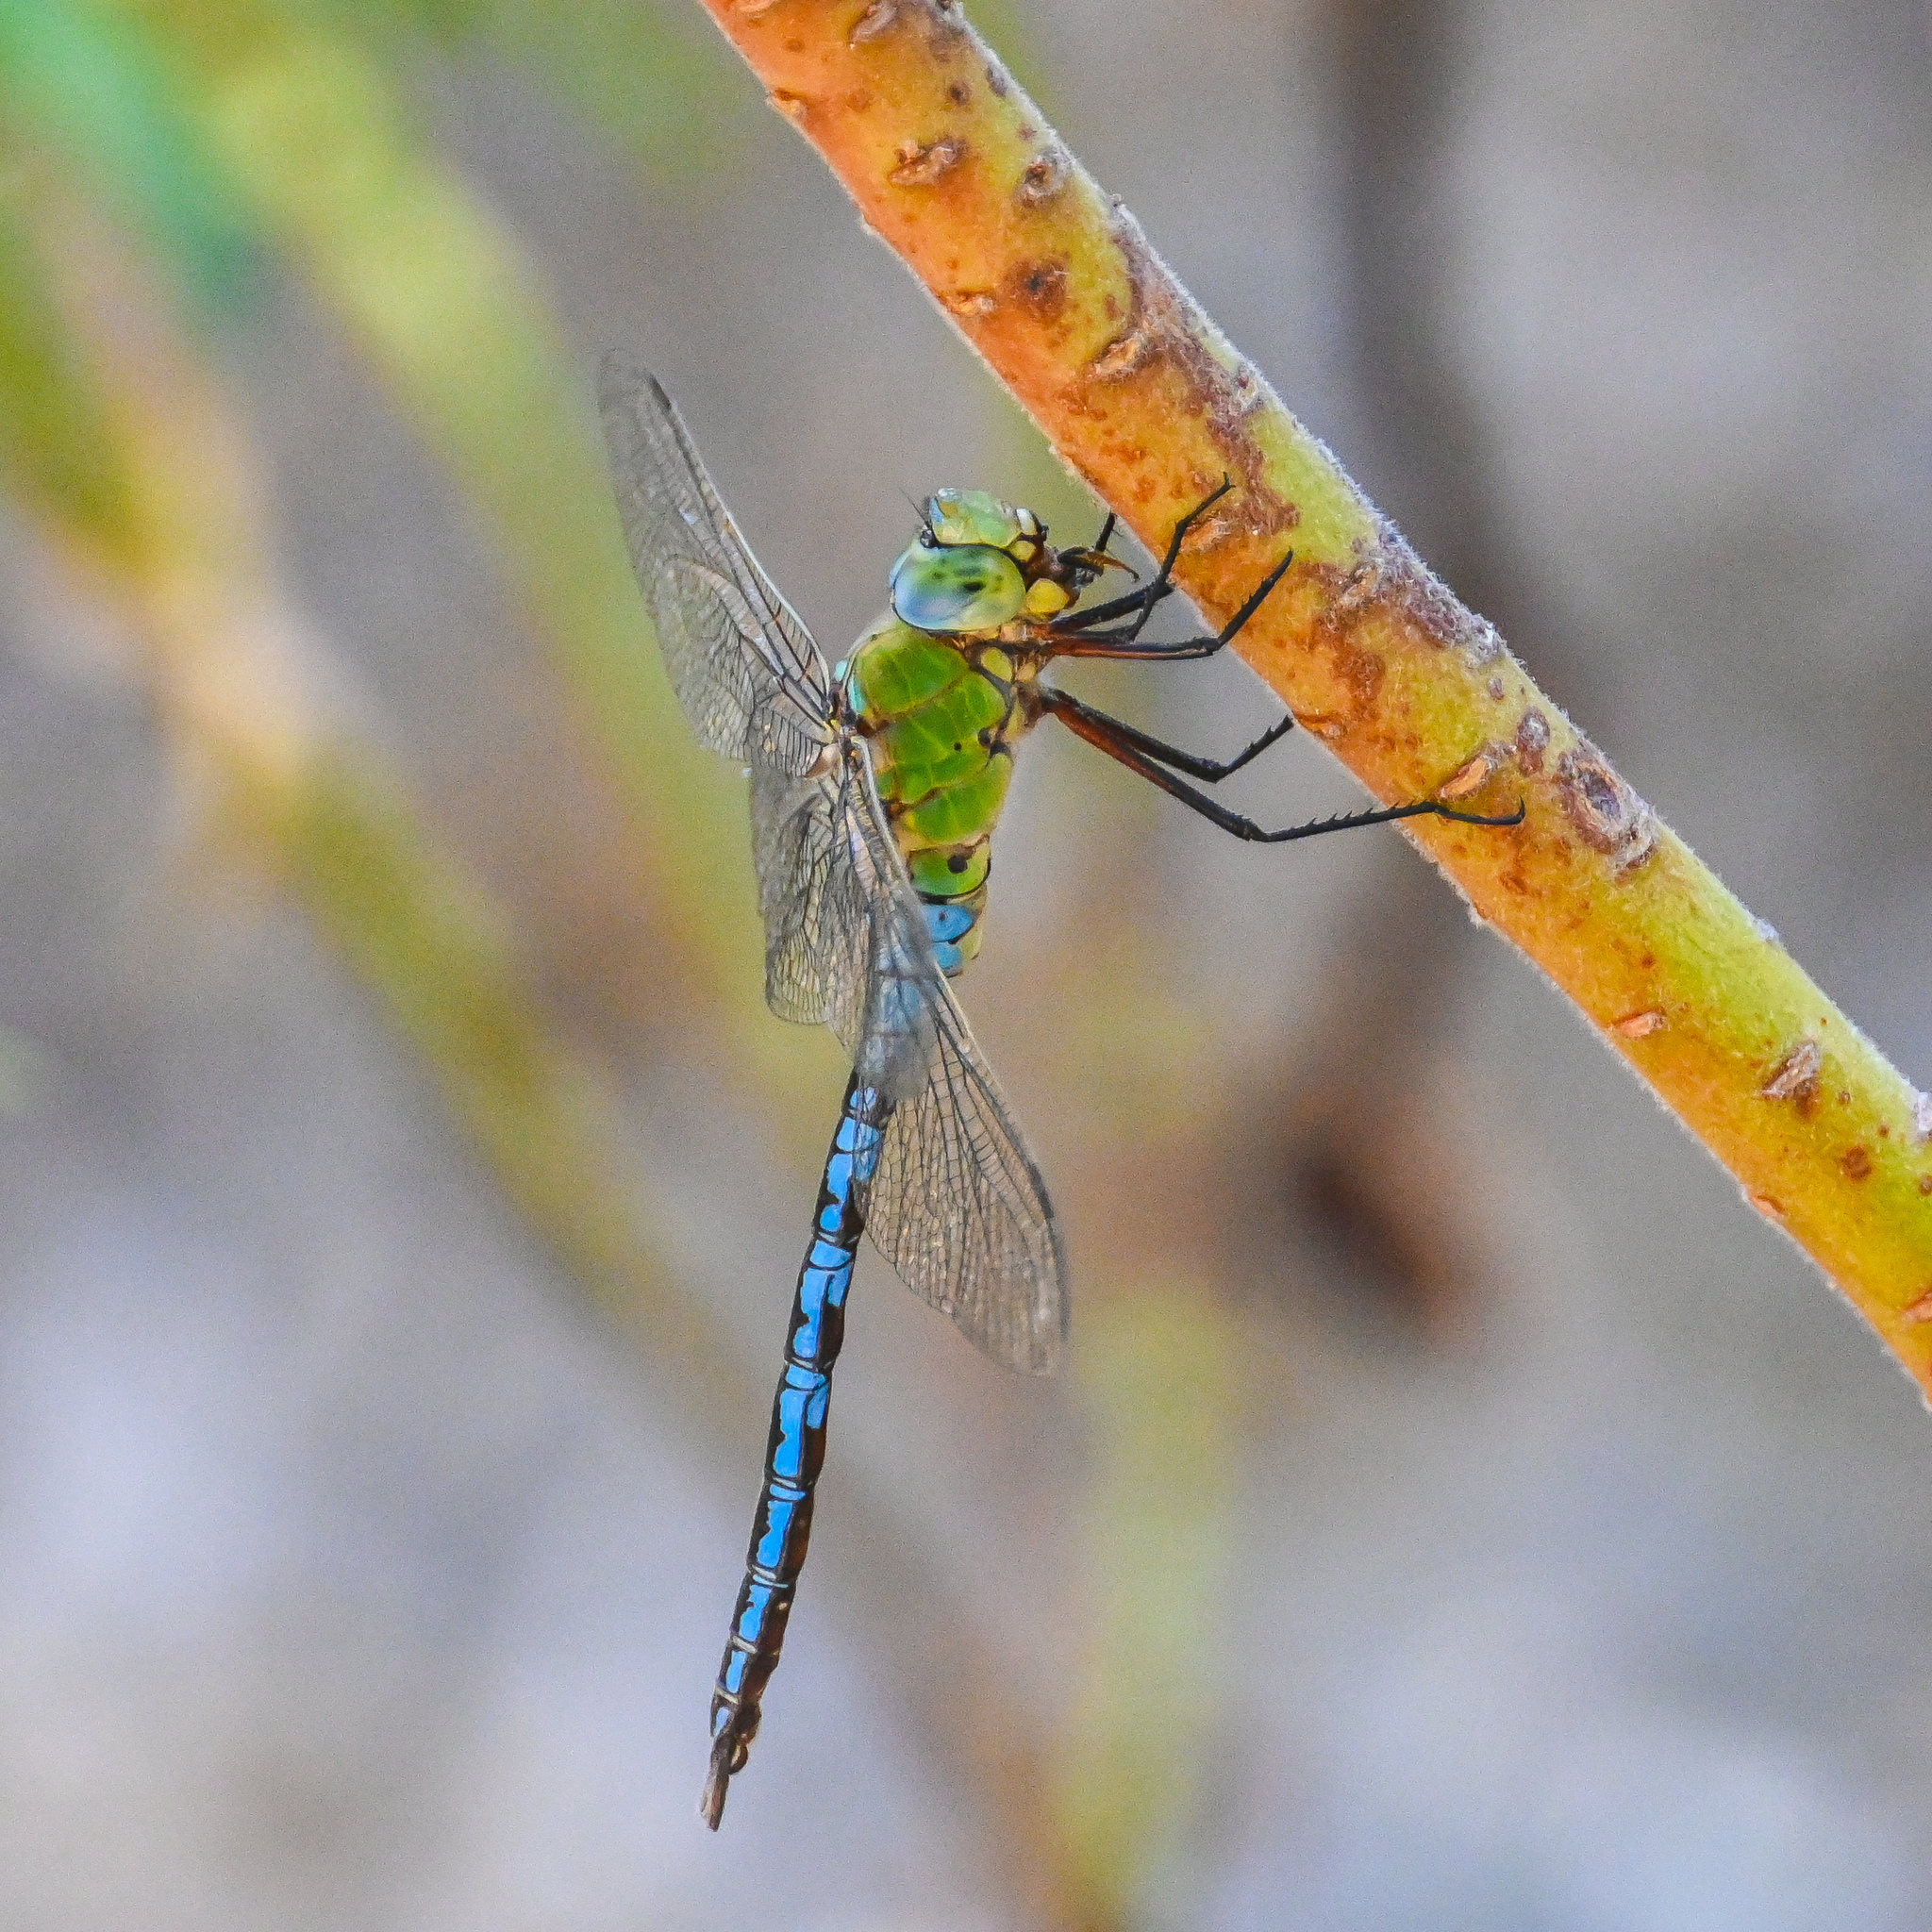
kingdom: Animalia
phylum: Arthropoda
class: Insecta
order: Odonata
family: Aeshnidae
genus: Anax
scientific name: Anax imperator
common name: Emperor dragonfly
